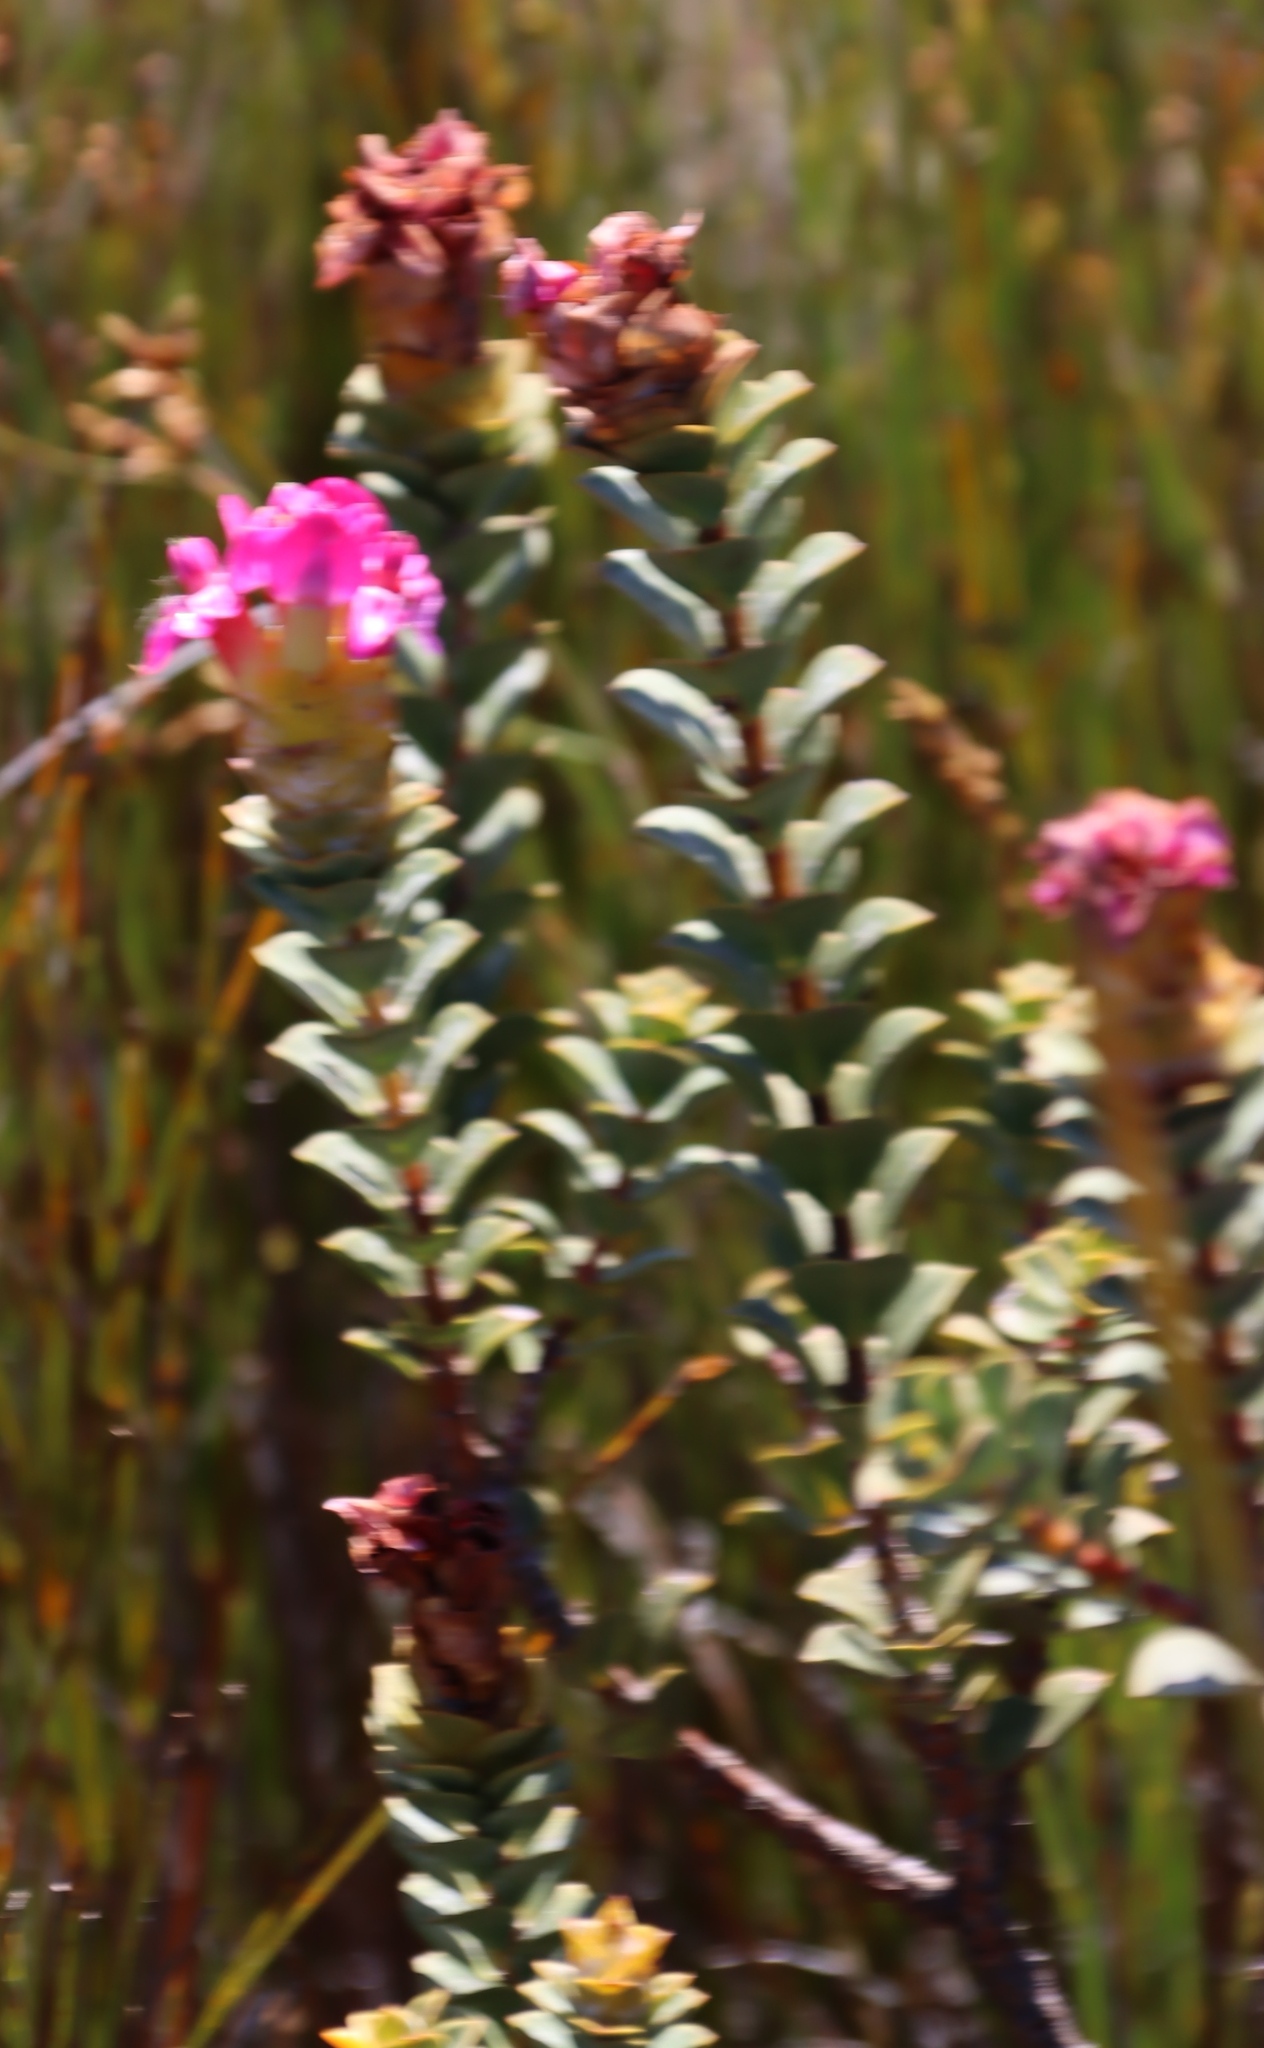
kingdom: Plantae
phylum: Tracheophyta
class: Magnoliopsida
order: Myrtales
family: Penaeaceae
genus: Saltera
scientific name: Saltera sarcocolla
